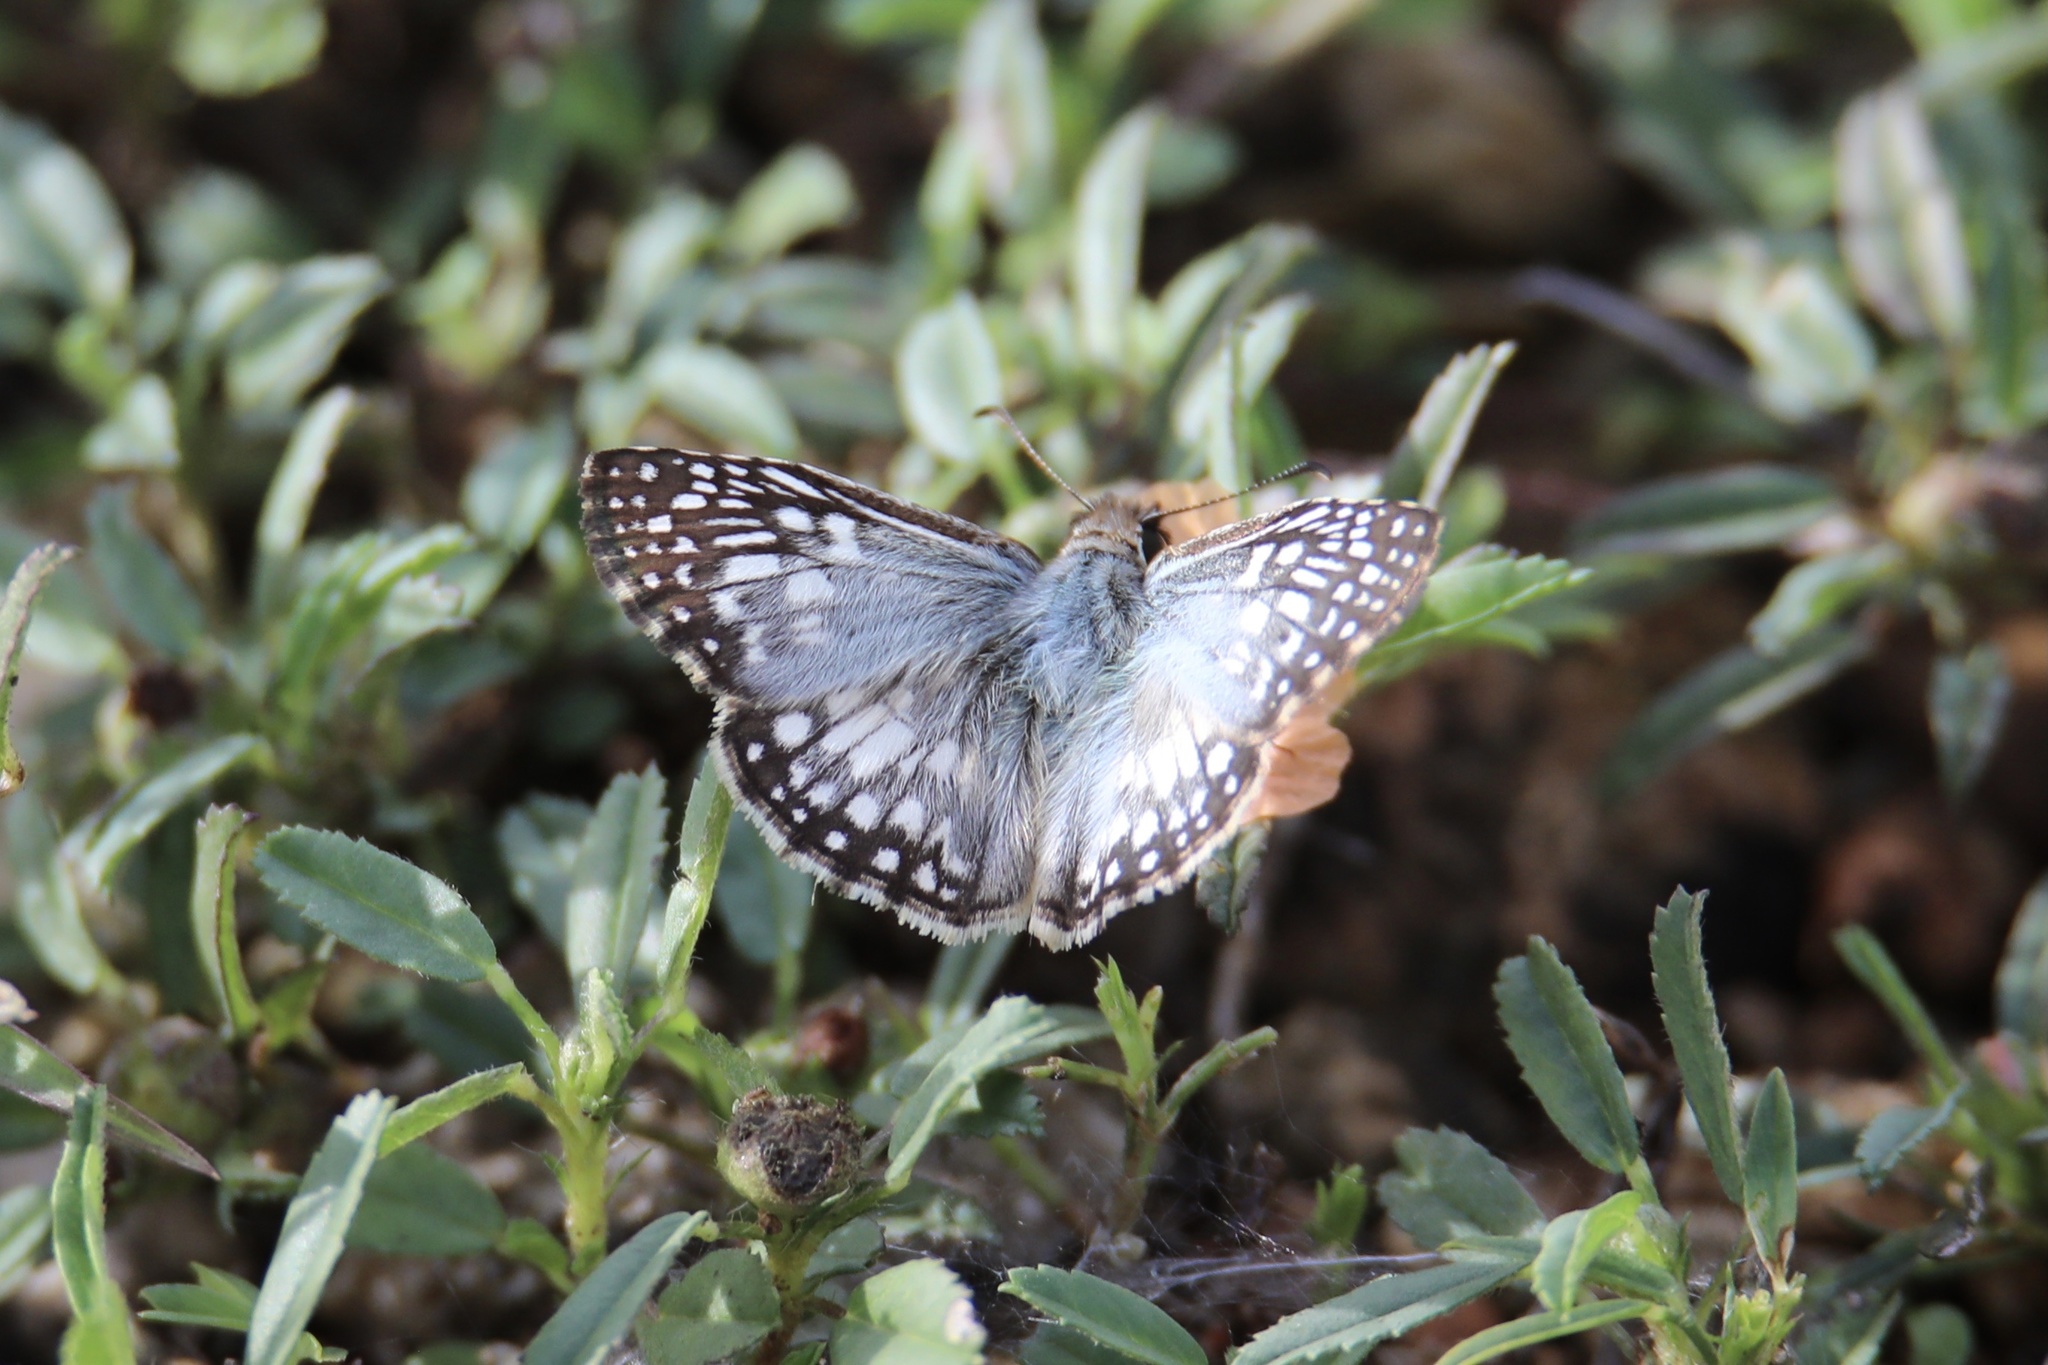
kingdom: Animalia
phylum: Arthropoda
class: Insecta
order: Lepidoptera
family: Hesperiidae
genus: Pyrgus
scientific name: Pyrgus oileus
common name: Tropical checkered-skipper
